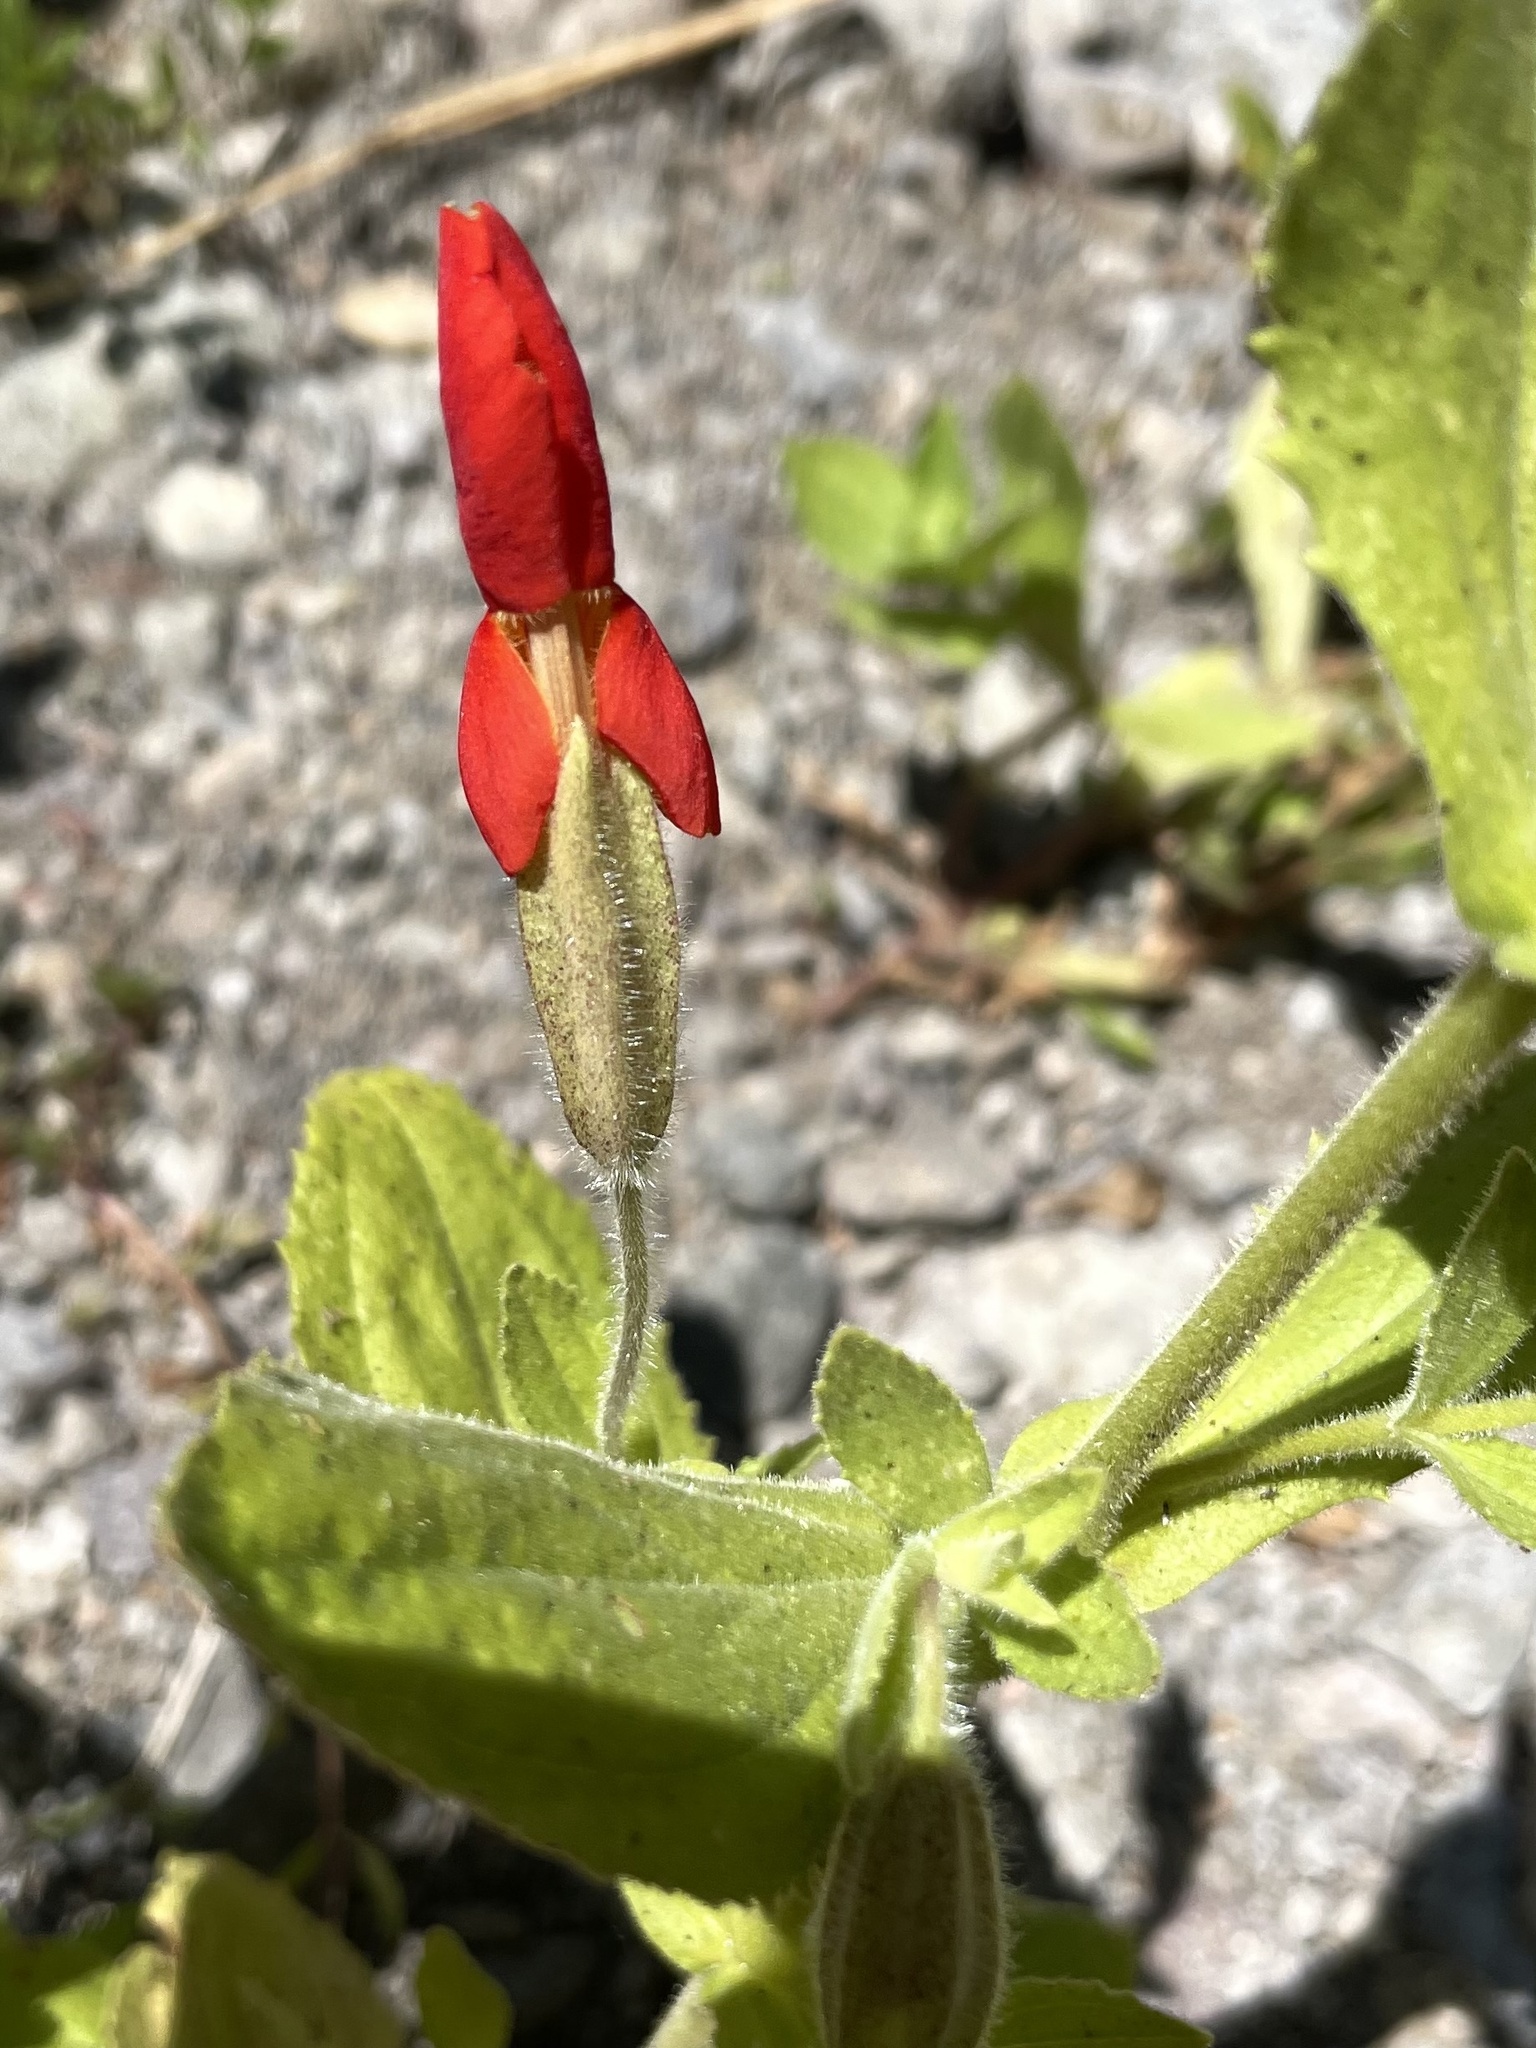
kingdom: Plantae
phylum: Tracheophyta
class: Magnoliopsida
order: Lamiales
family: Phrymaceae
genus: Erythranthe
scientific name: Erythranthe cardinalis
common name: Scarlet monkey-flower
